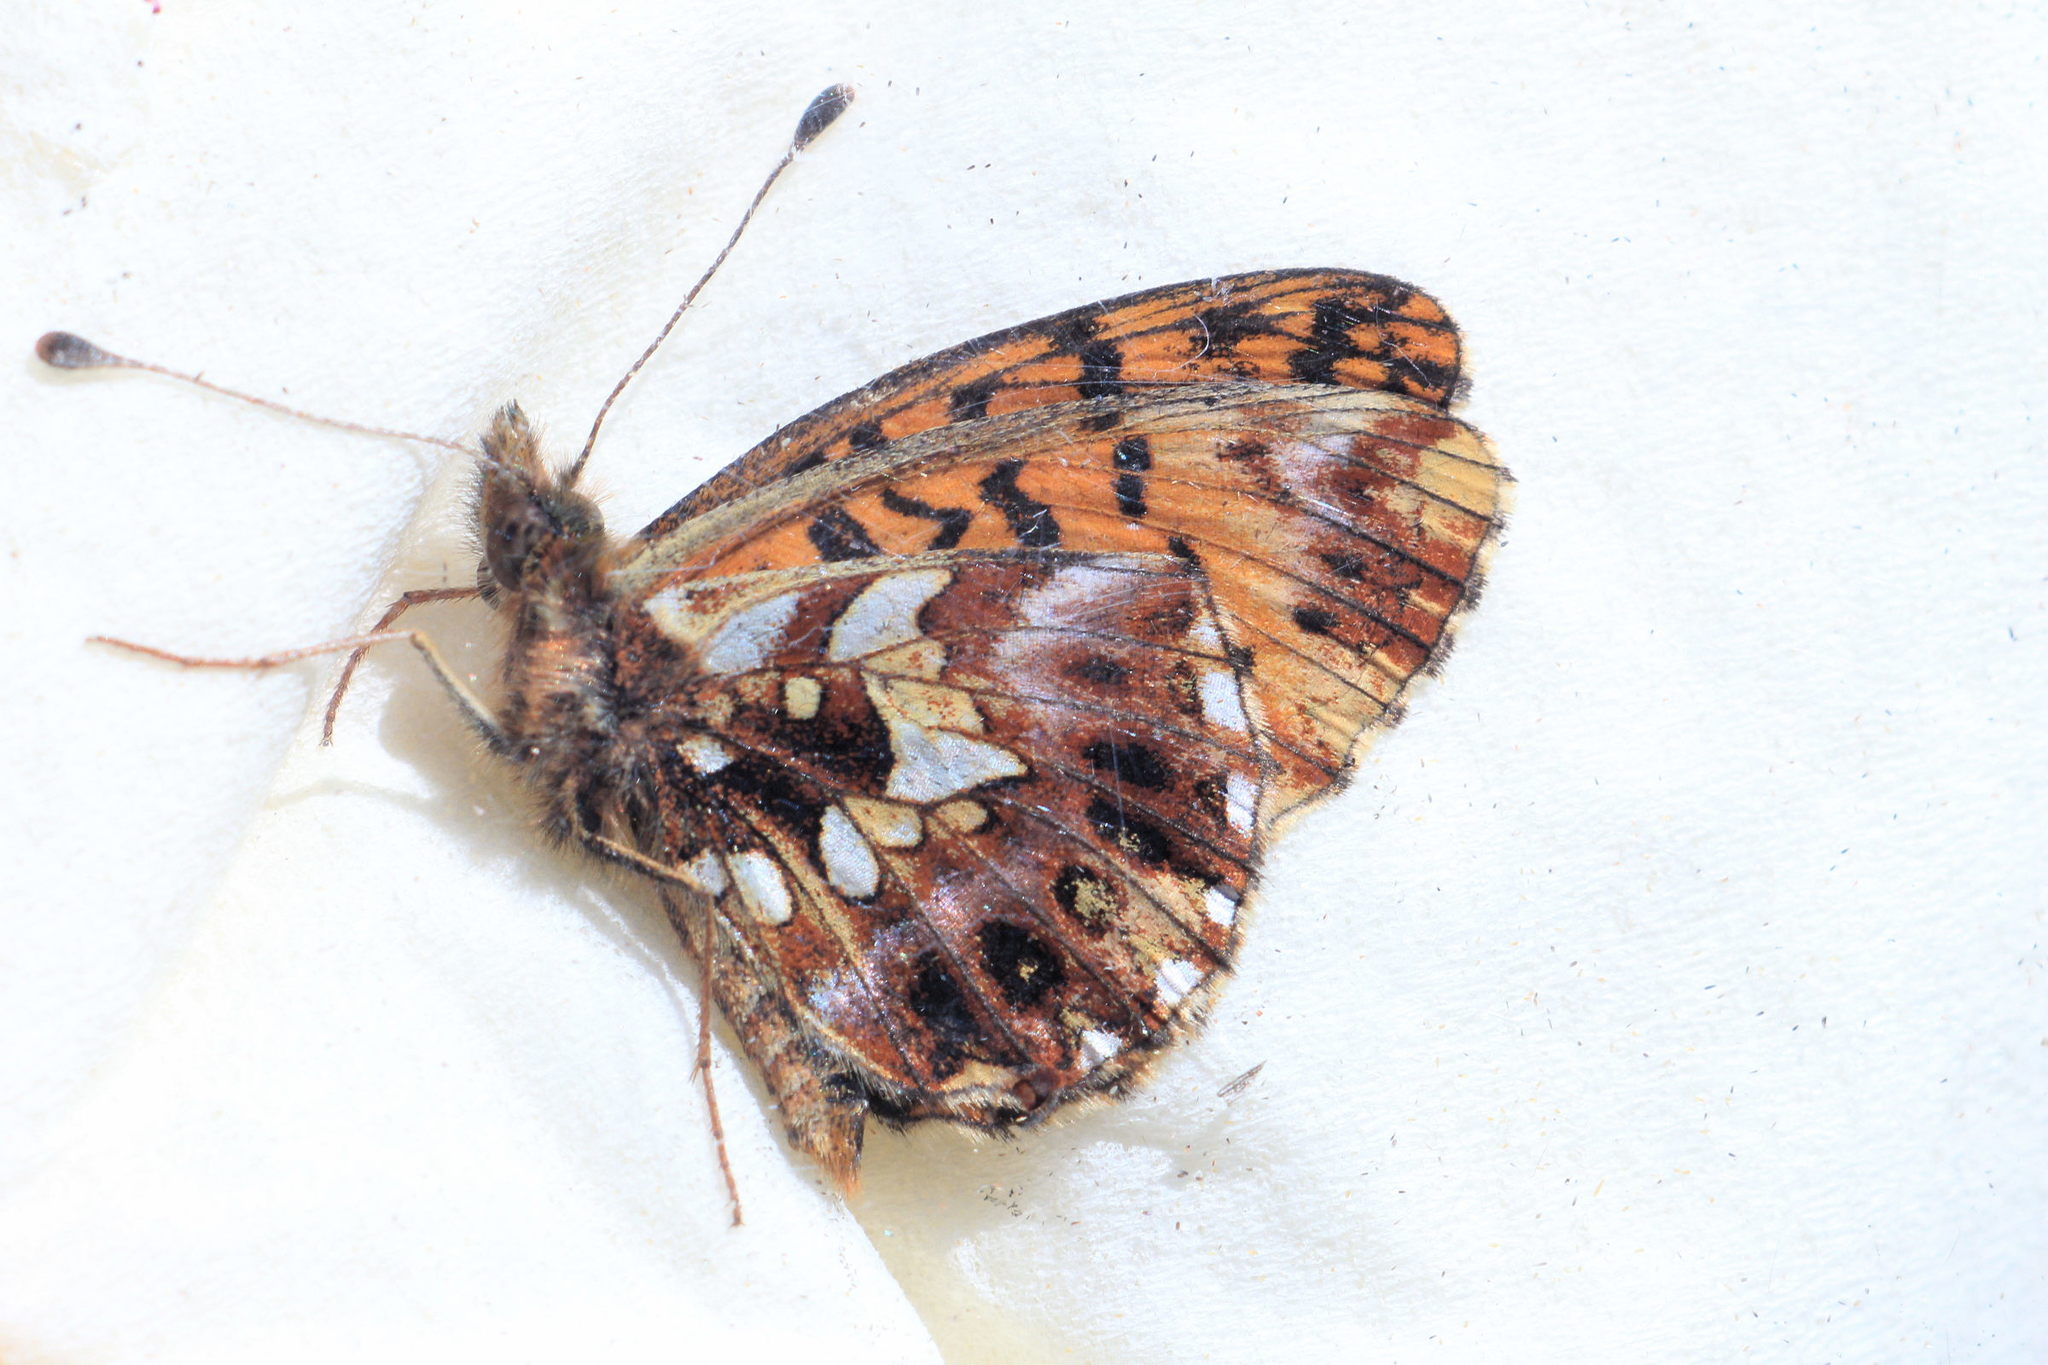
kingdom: Animalia
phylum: Arthropoda
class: Insecta
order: Lepidoptera
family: Nymphalidae
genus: Boloria
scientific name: Boloria dia
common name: Weaver's fritillary
